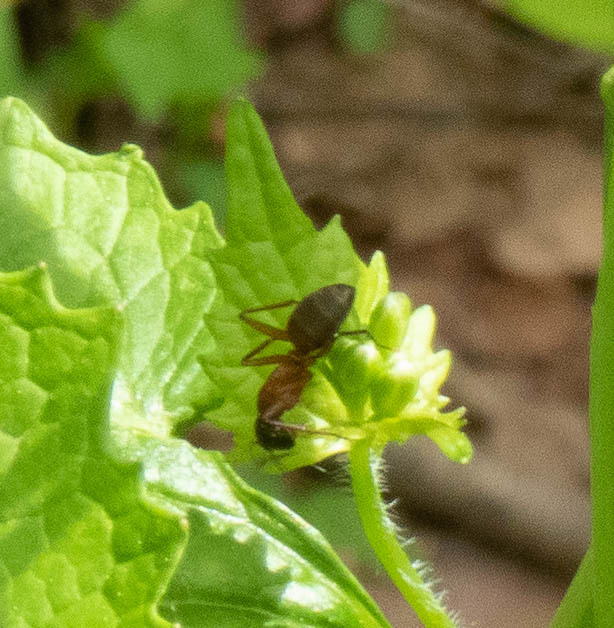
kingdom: Animalia
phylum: Arthropoda
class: Insecta
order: Hymenoptera
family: Formicidae
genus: Camponotus
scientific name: Camponotus
